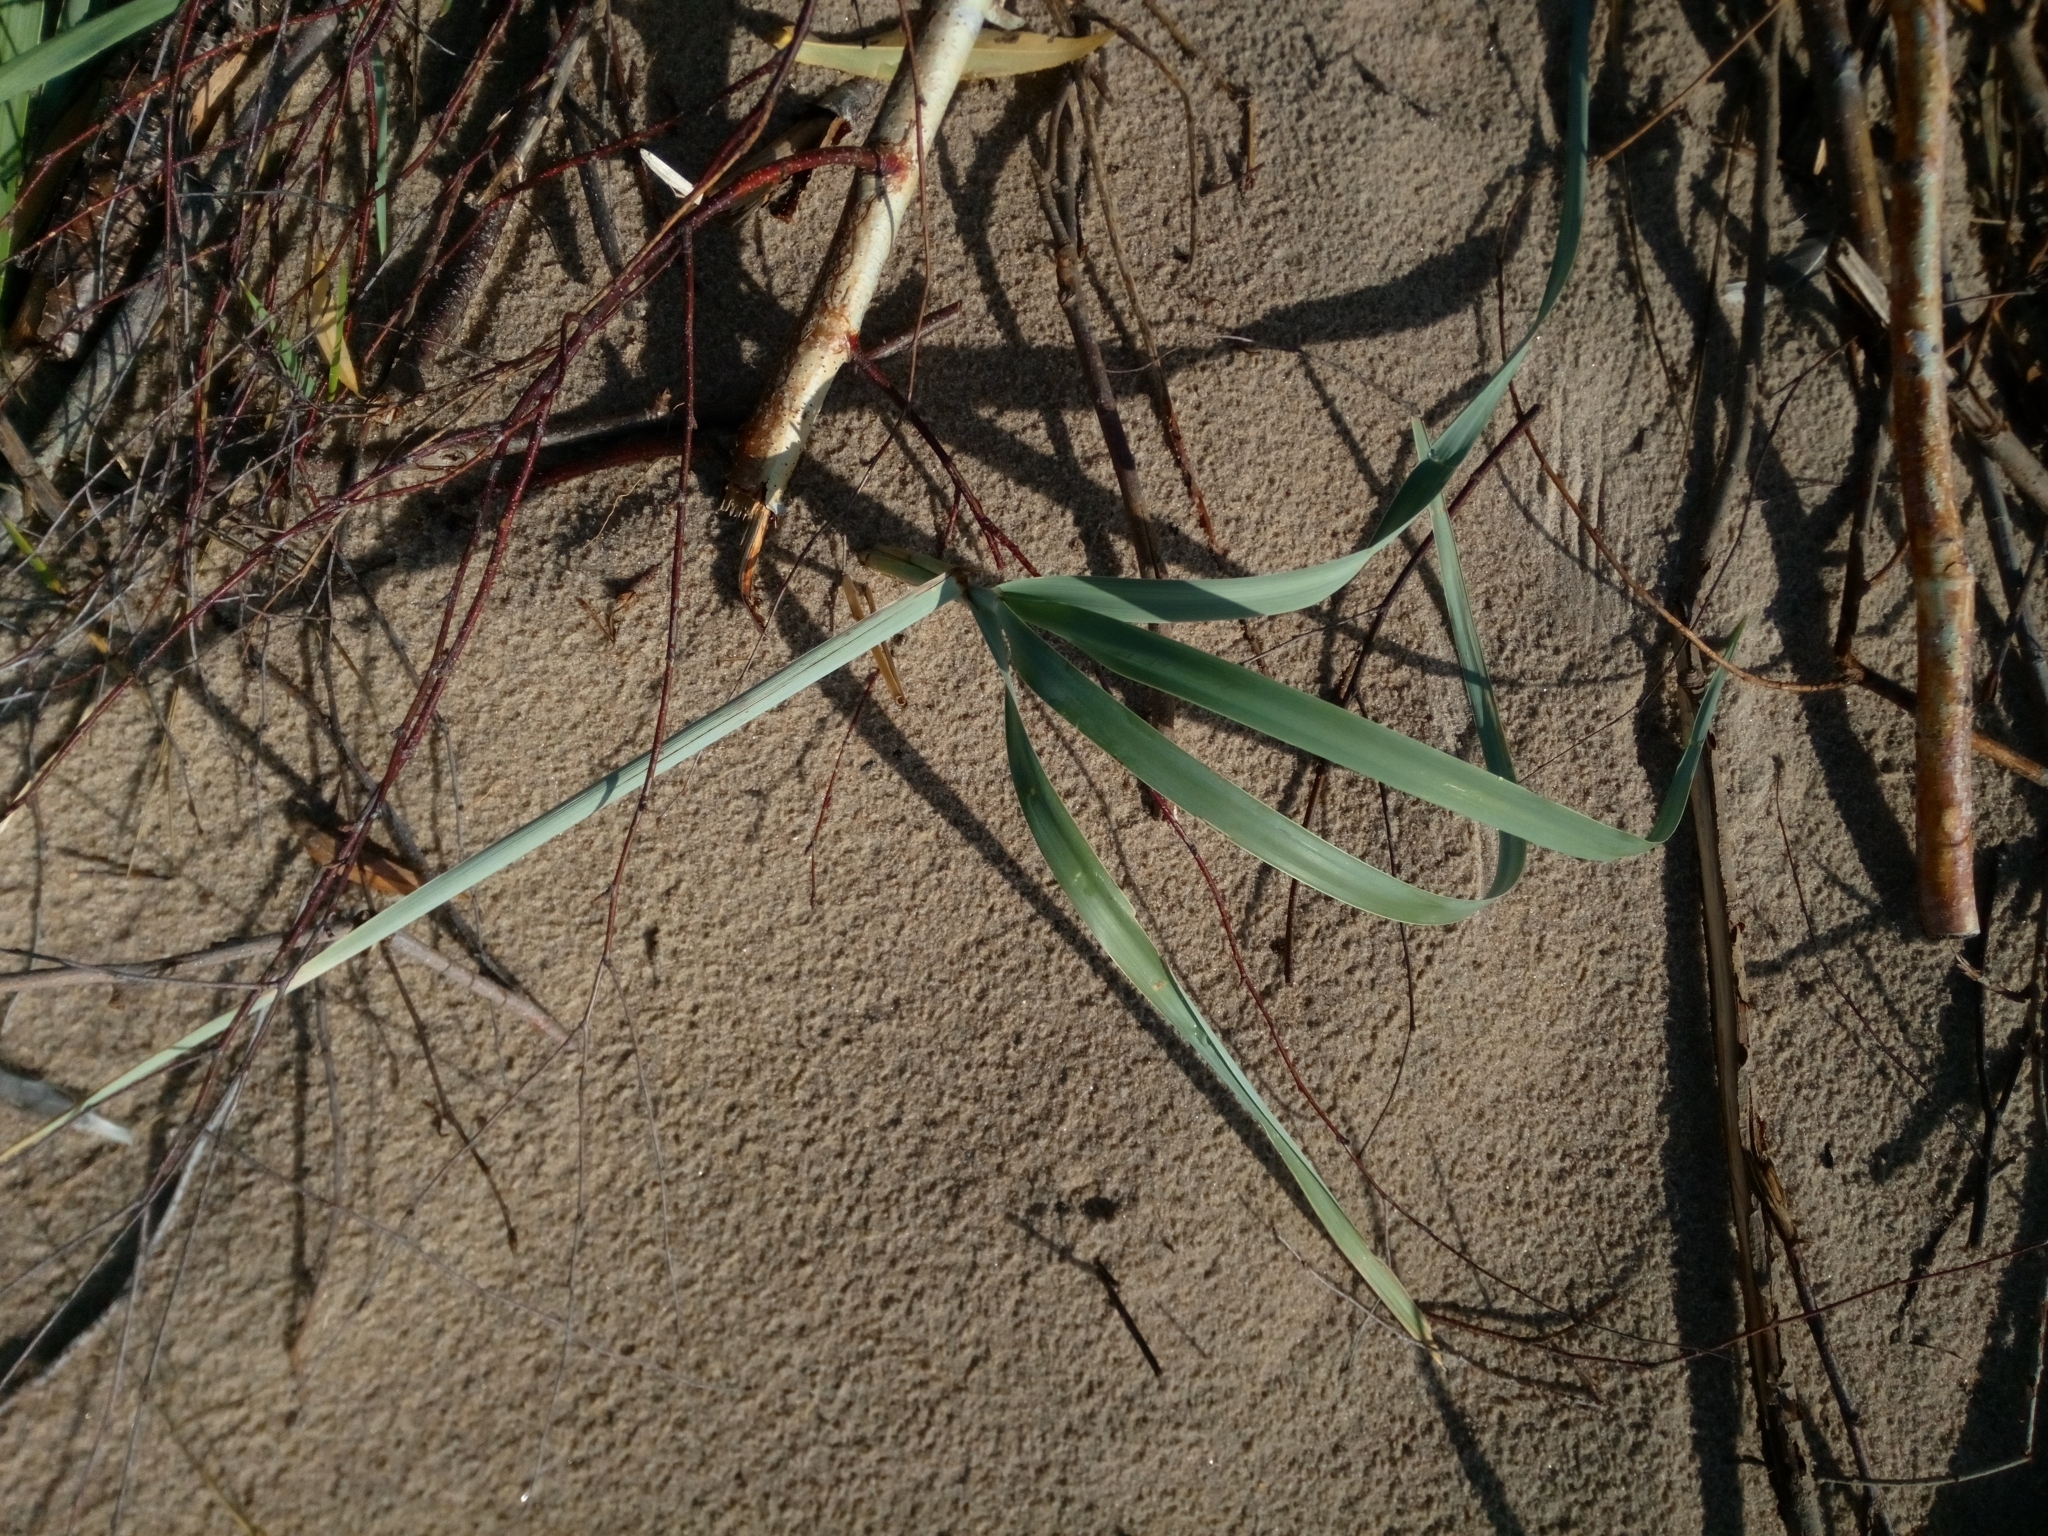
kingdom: Plantae
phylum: Tracheophyta
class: Liliopsida
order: Poales
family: Poaceae
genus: Leymus
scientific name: Leymus arenarius
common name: Lyme-grass
